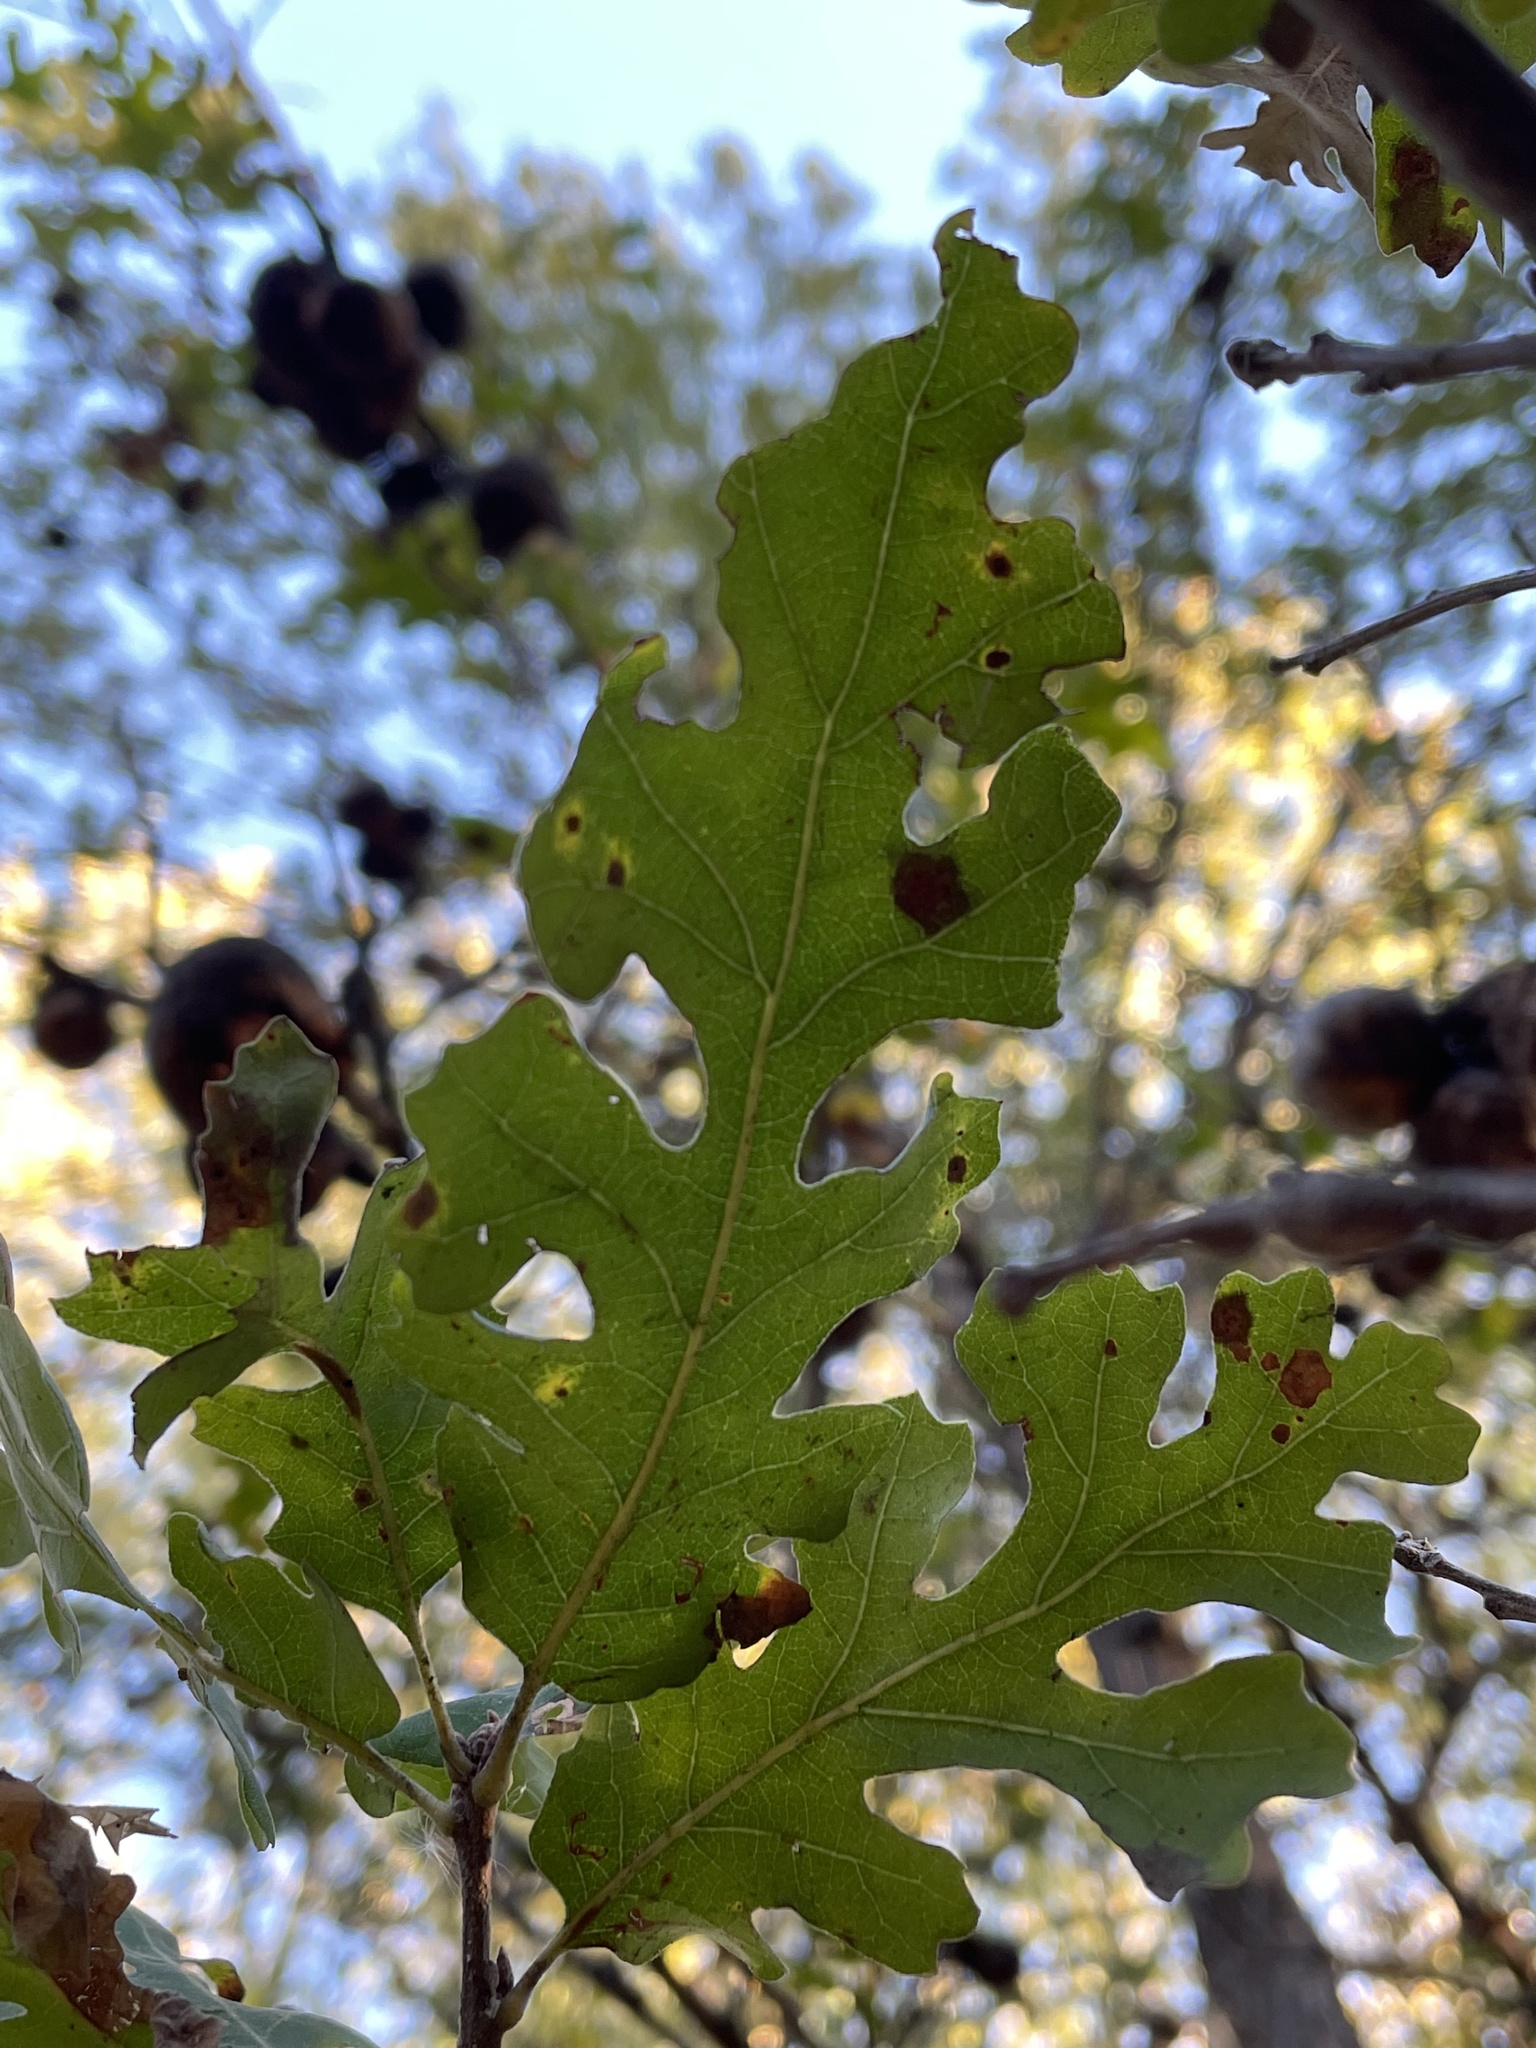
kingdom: Plantae
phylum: Tracheophyta
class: Magnoliopsida
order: Fagales
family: Fagaceae
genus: Quercus
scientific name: Quercus lobata
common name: Valley oak
